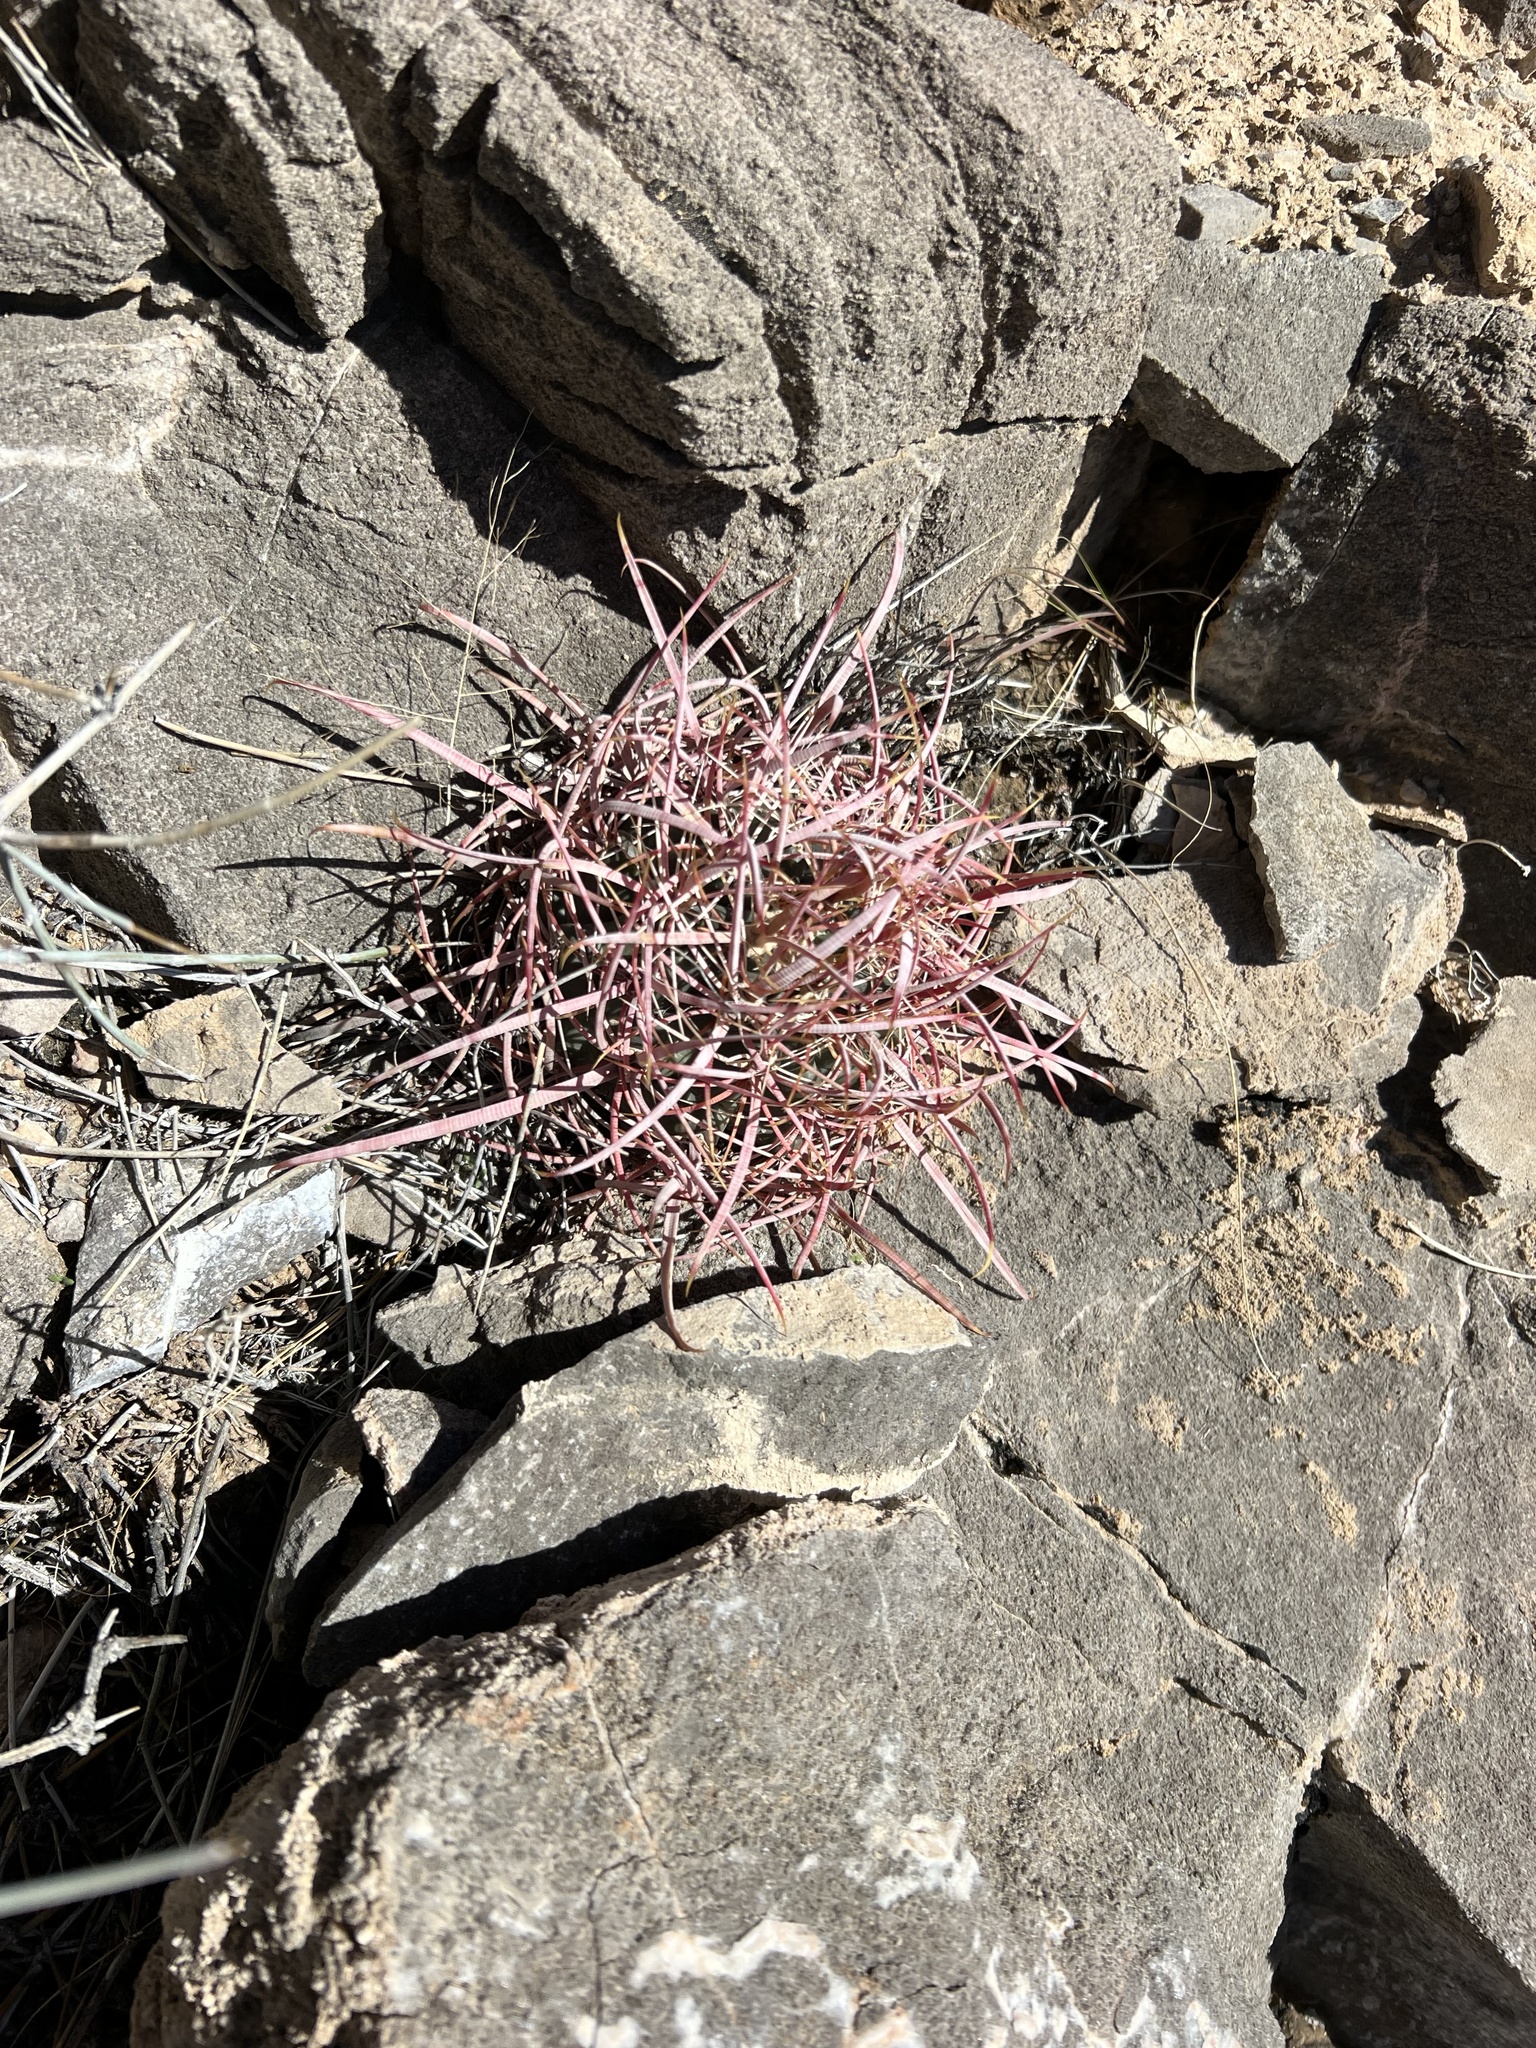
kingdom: Plantae
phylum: Tracheophyta
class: Magnoliopsida
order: Caryophyllales
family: Cactaceae
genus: Ferocactus
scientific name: Ferocactus cylindraceus
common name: California barrel cactus
